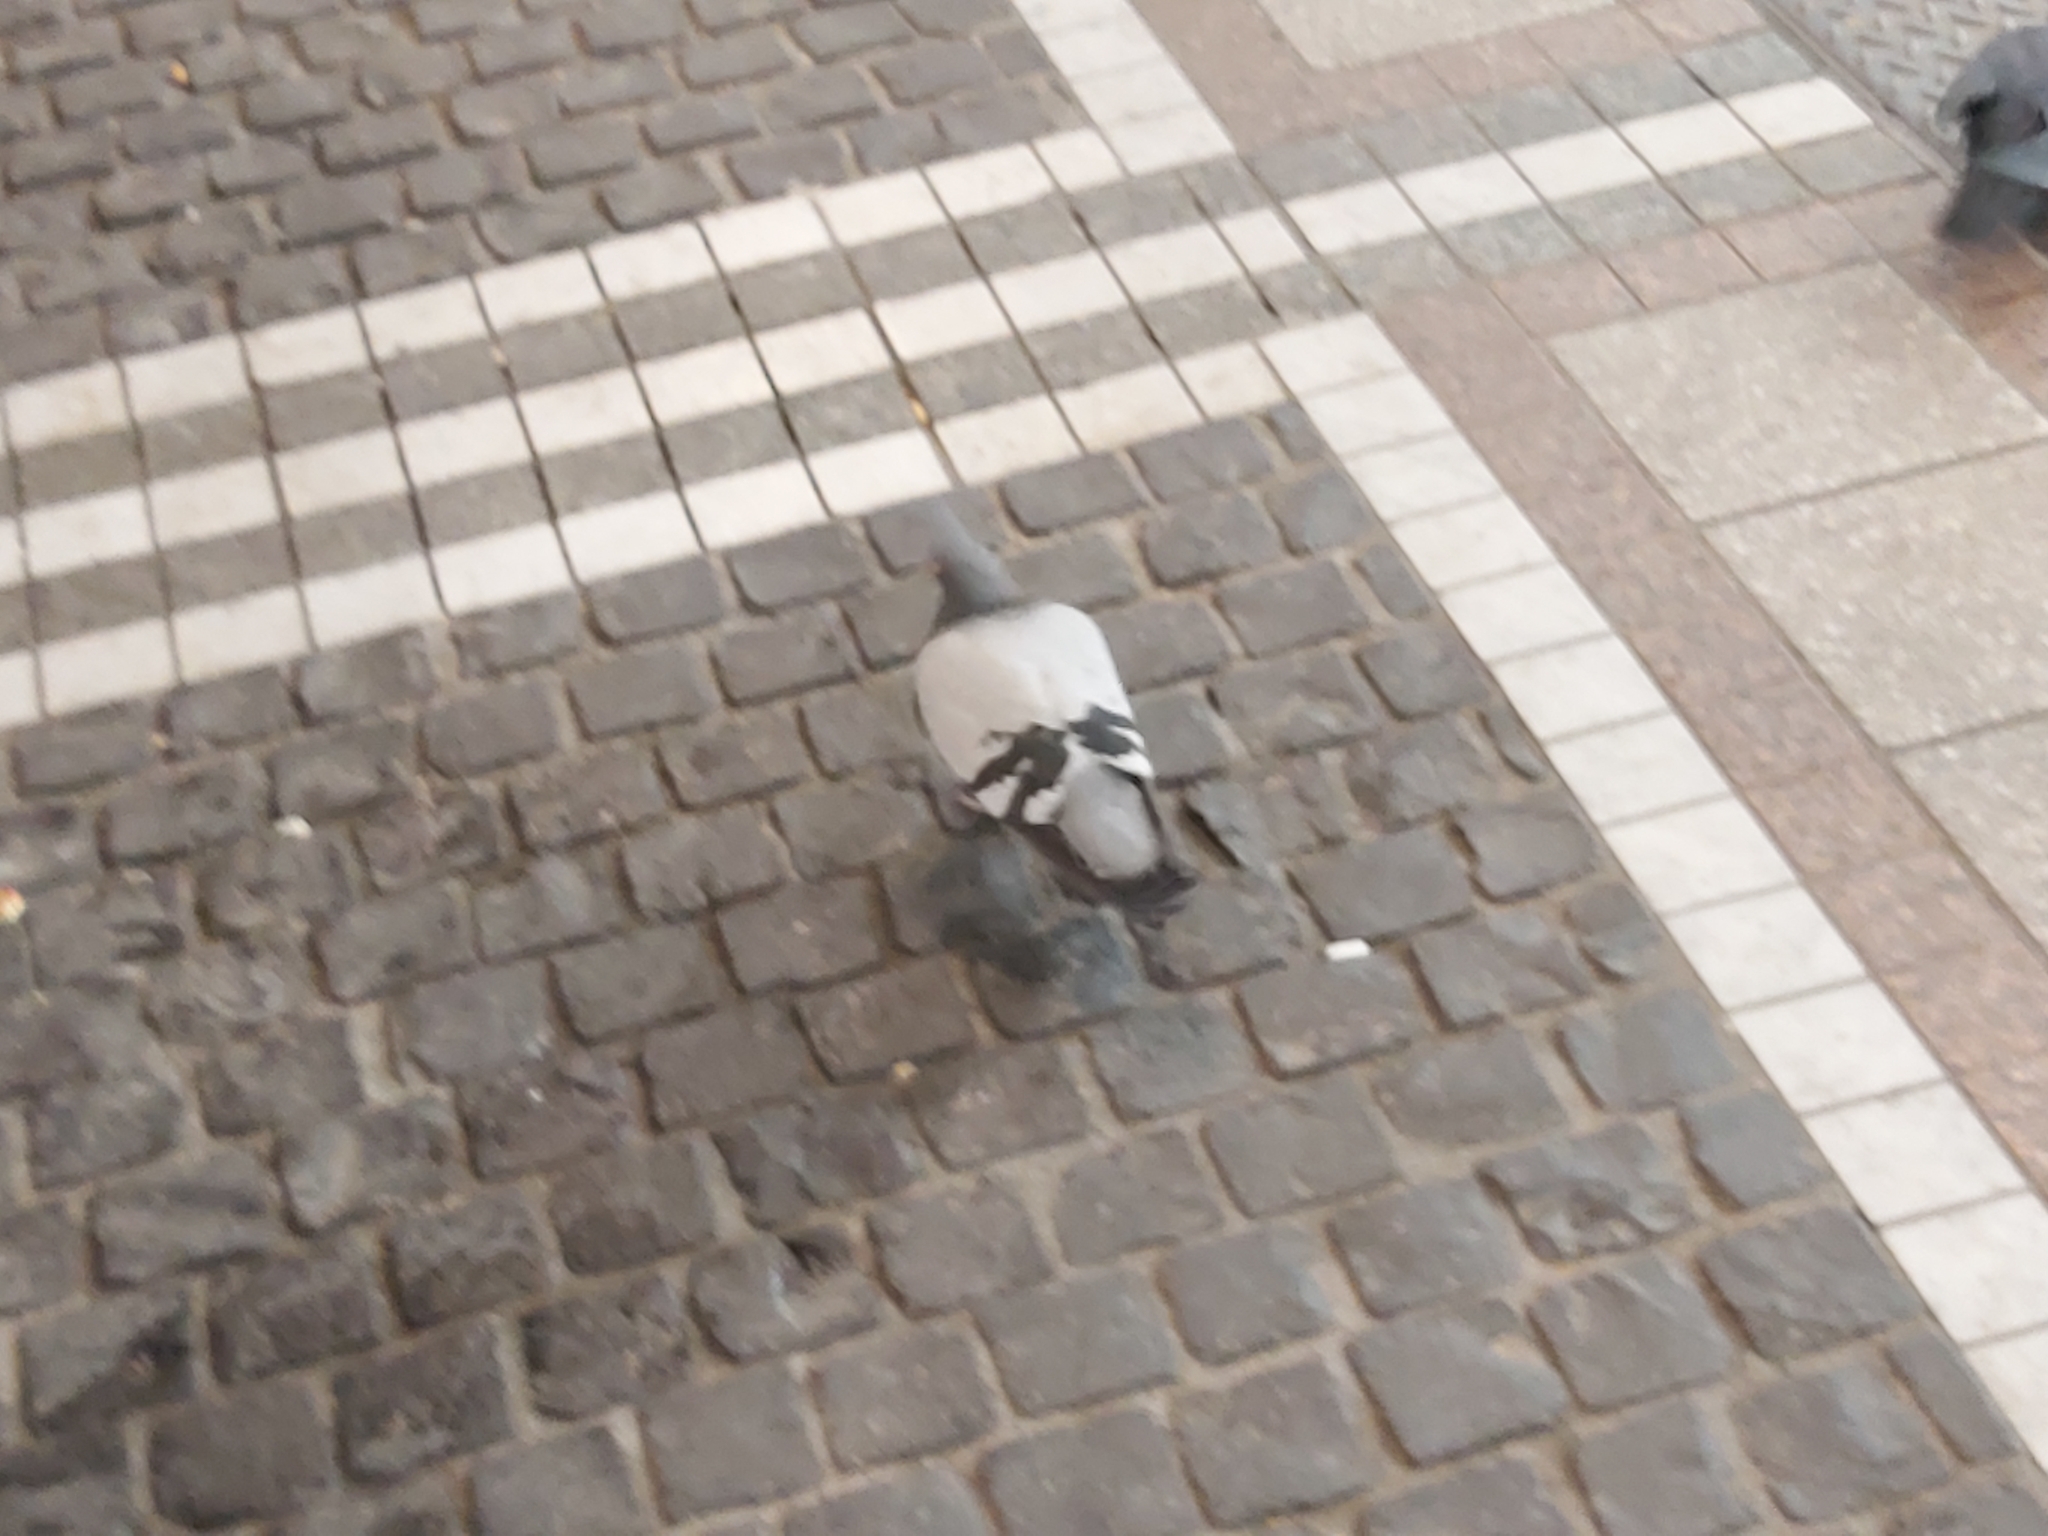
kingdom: Animalia
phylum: Chordata
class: Aves
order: Columbiformes
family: Columbidae
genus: Columba
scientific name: Columba livia
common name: Rock pigeon
